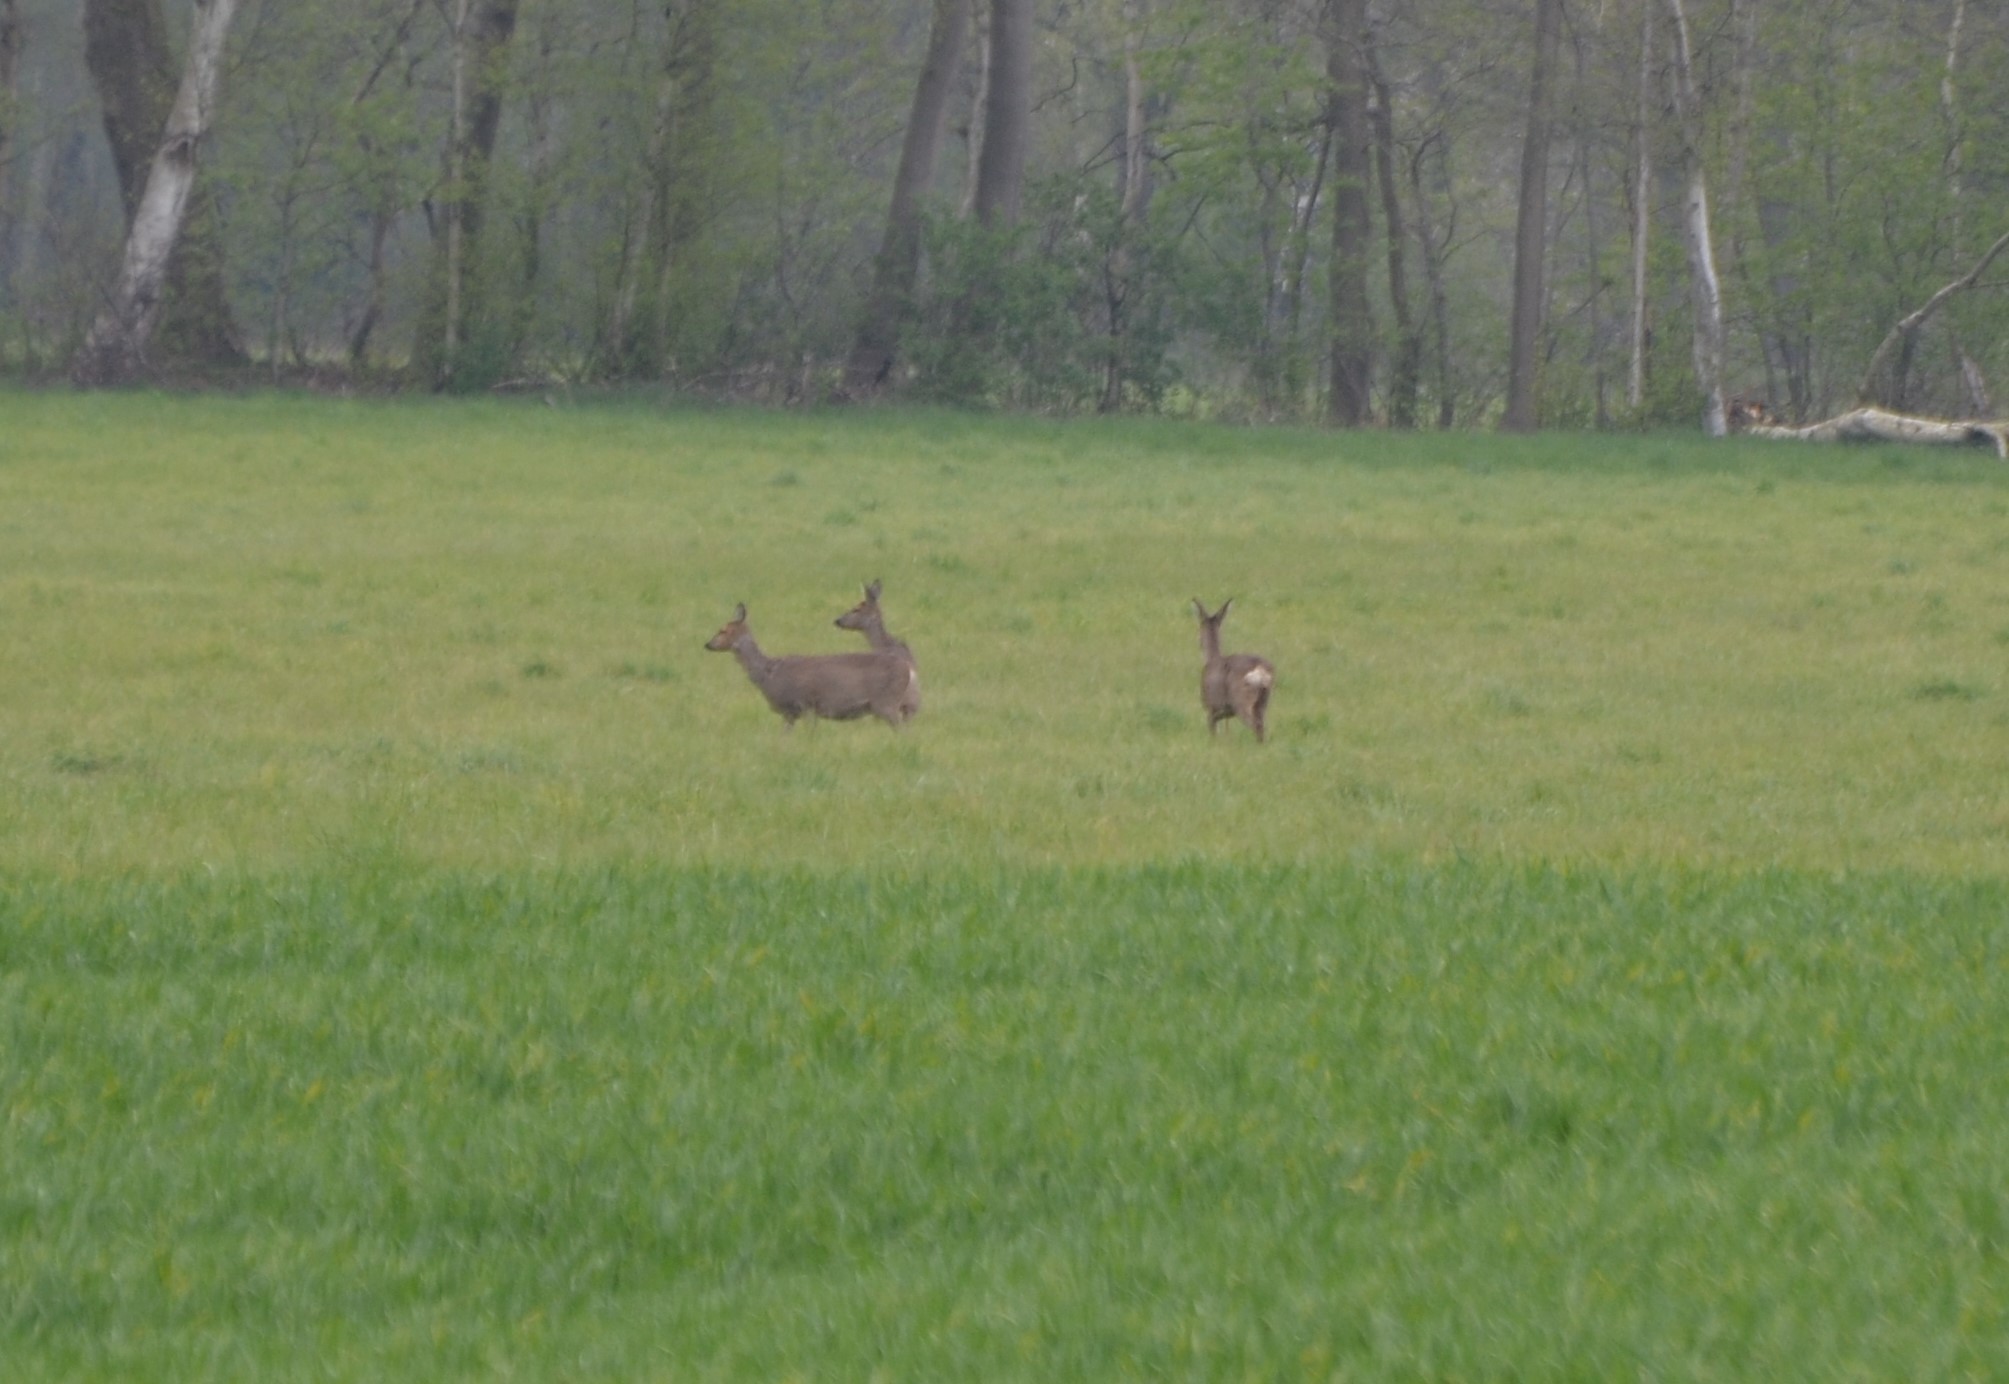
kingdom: Animalia
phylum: Chordata
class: Mammalia
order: Artiodactyla
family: Cervidae
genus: Capreolus
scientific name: Capreolus capreolus
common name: Western roe deer
